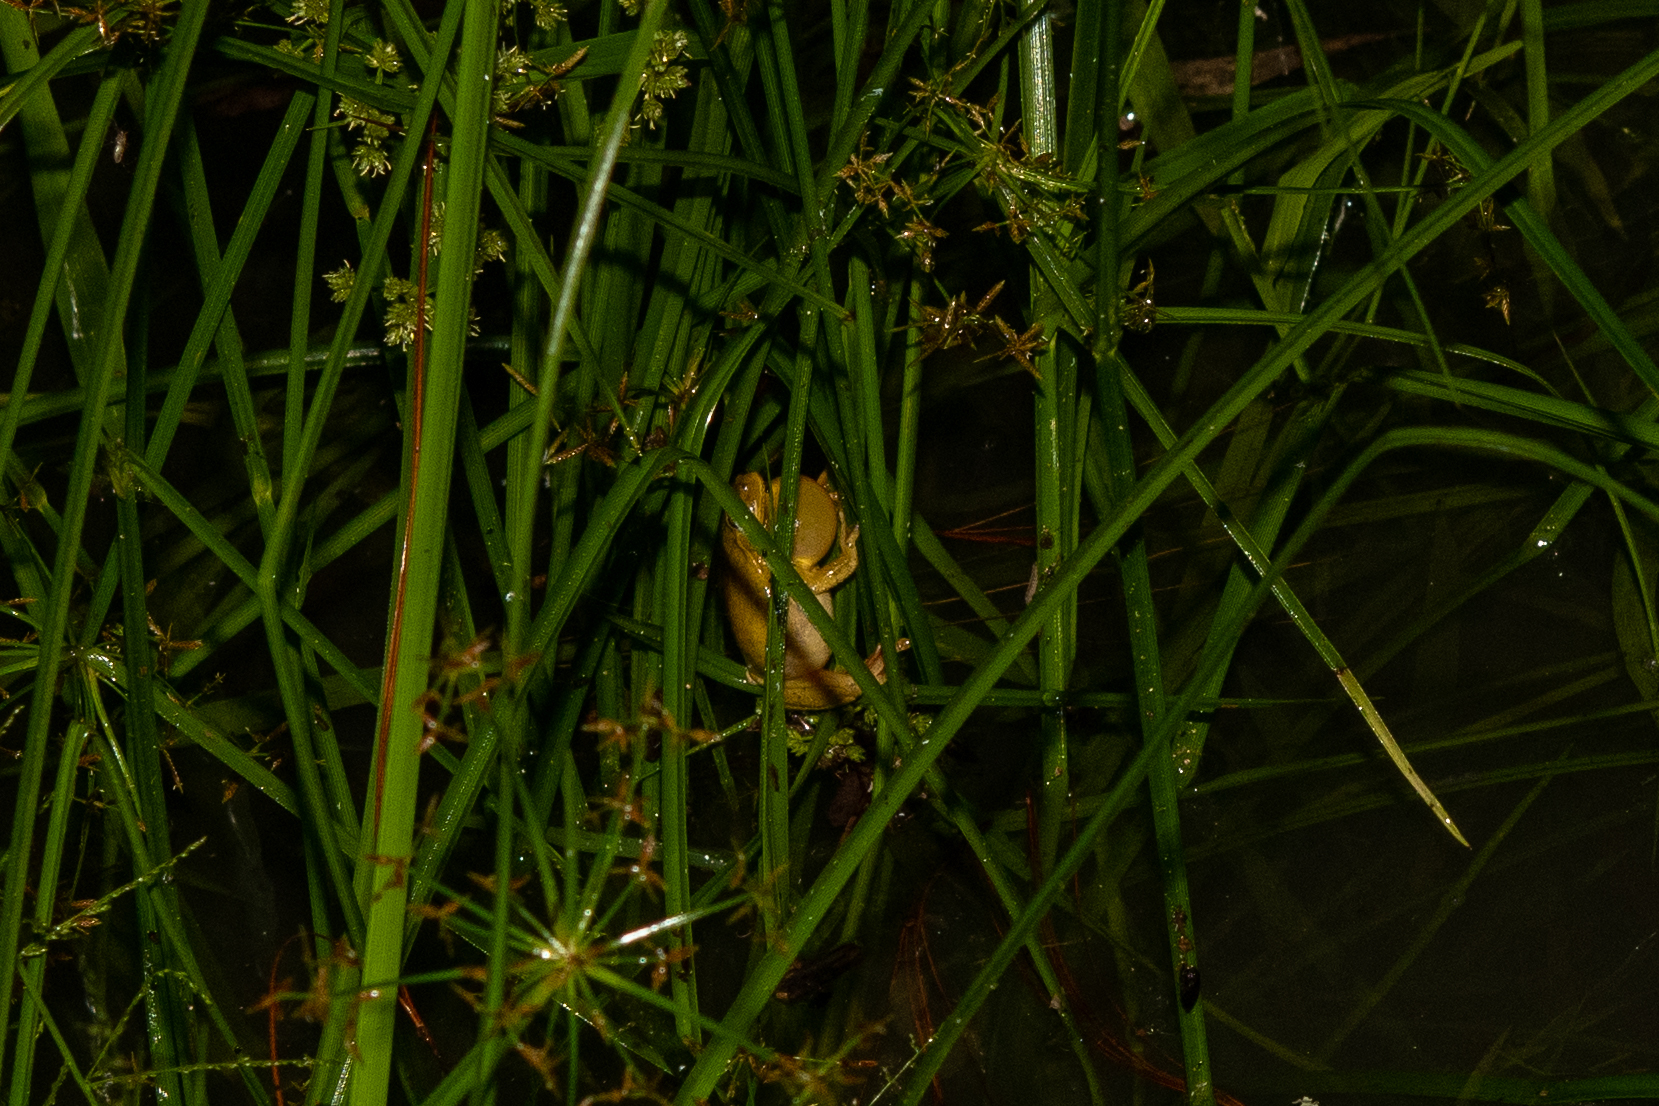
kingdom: Animalia
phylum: Chordata
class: Amphibia
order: Anura
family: Hylidae
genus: Tlalocohyla
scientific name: Tlalocohyla loquax
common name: Loquacious treefrog
